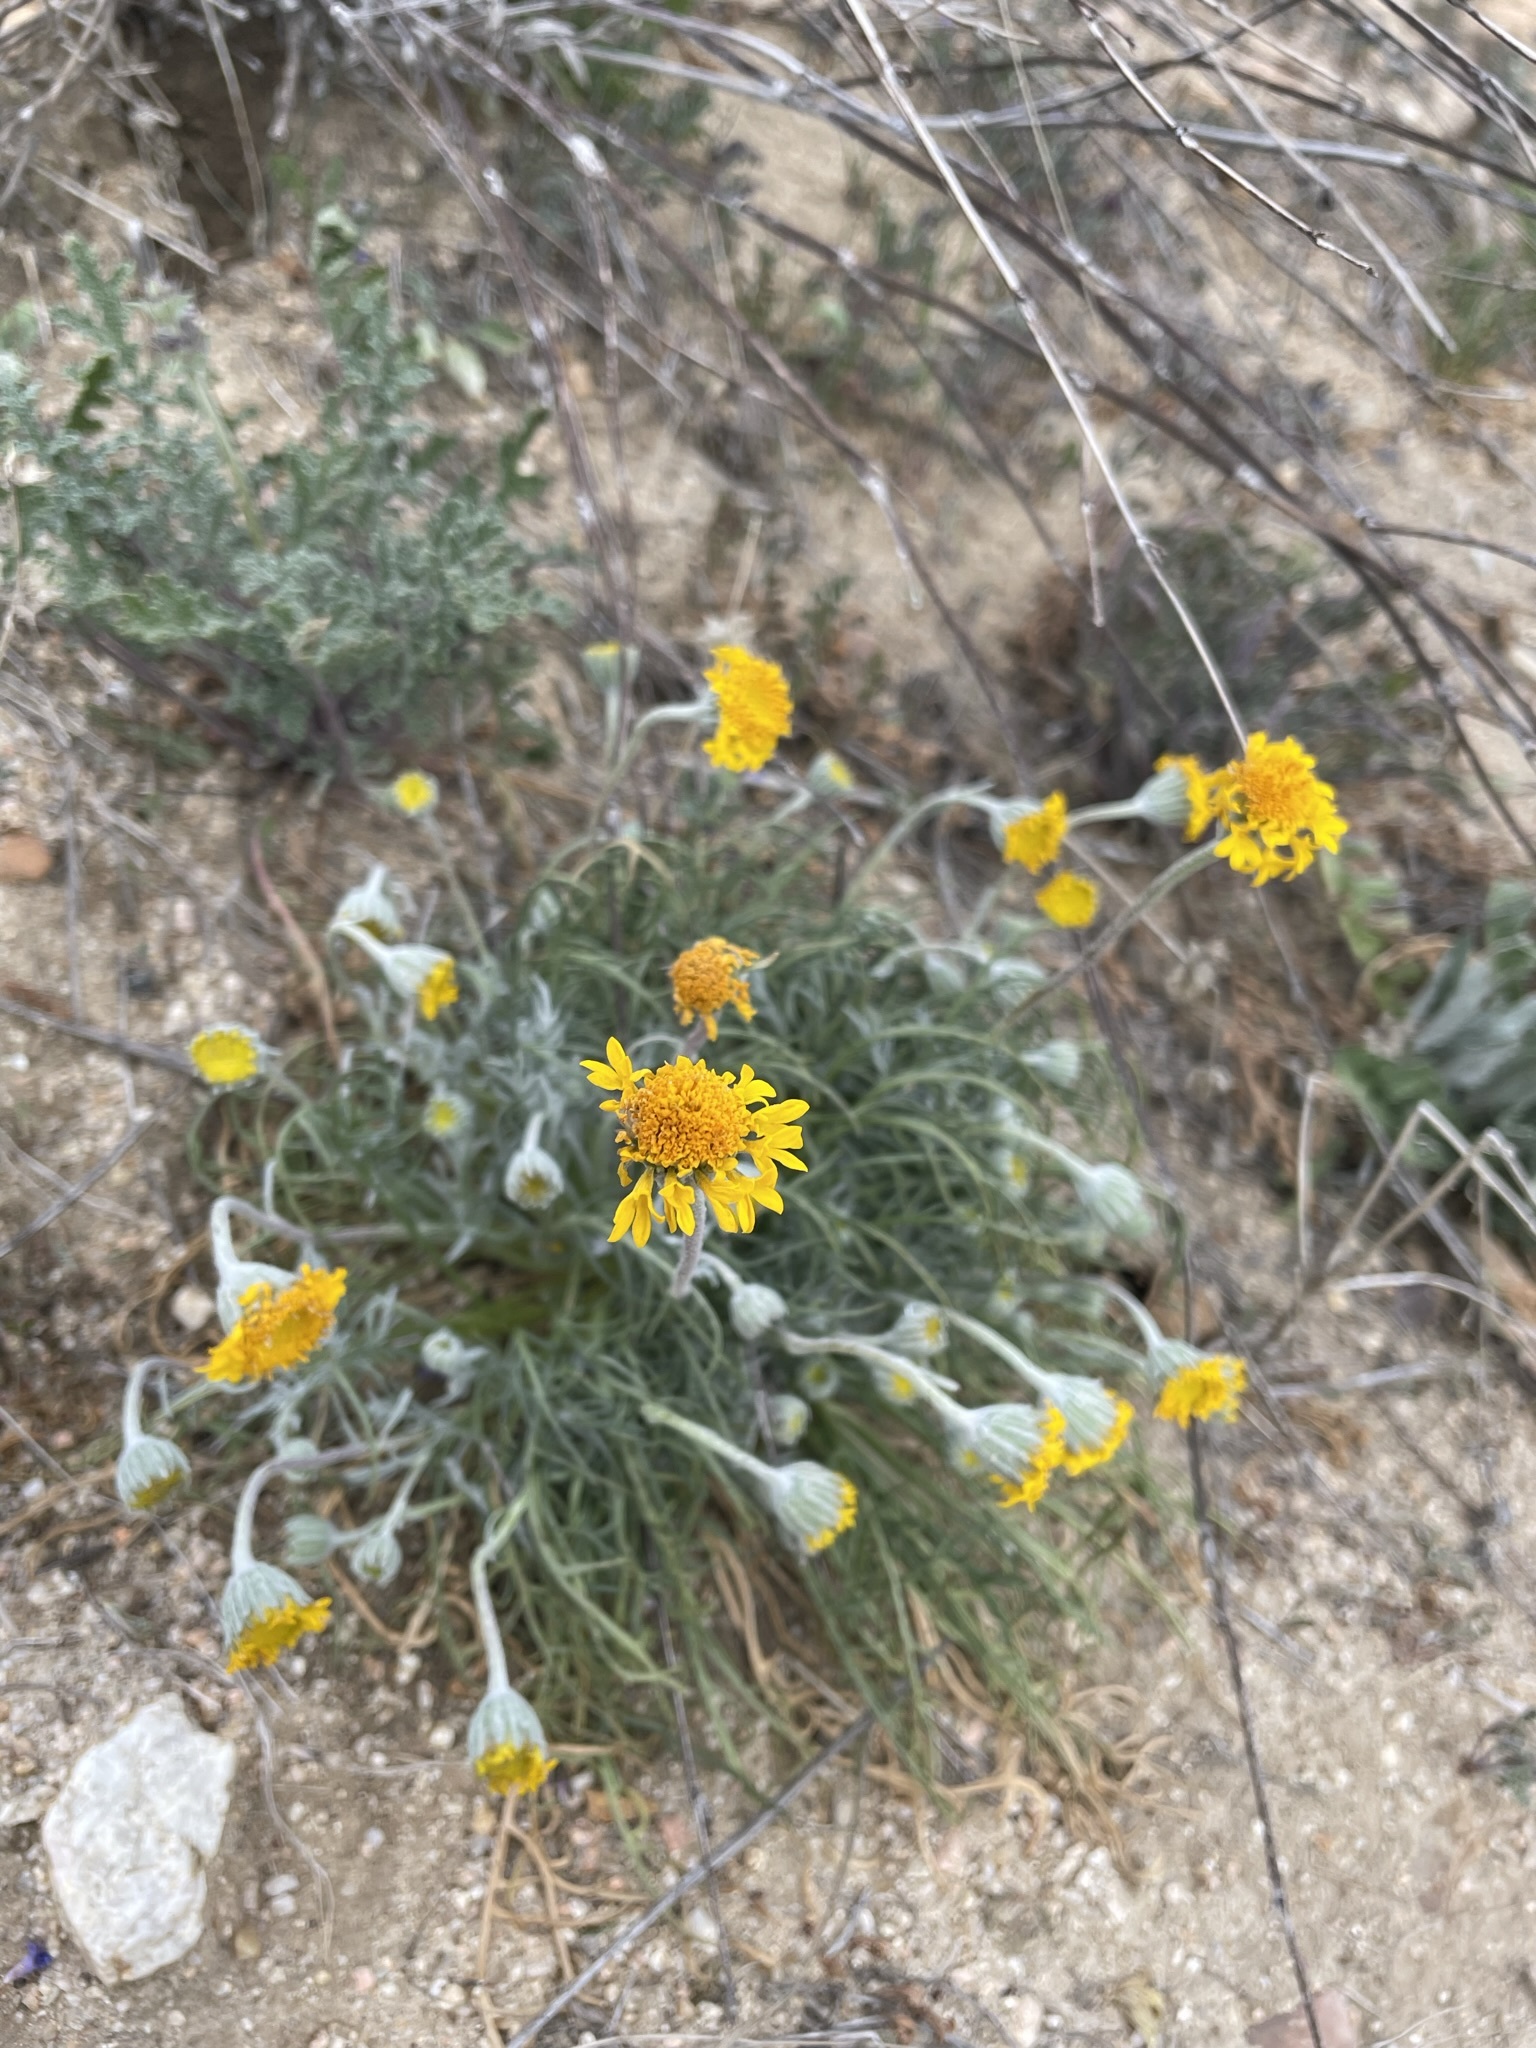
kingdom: Plantae
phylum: Tracheophyta
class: Magnoliopsida
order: Asterales
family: Asteraceae
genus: Chaenactis
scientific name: Chaenactis glabriuscula
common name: Yellow pincushion
